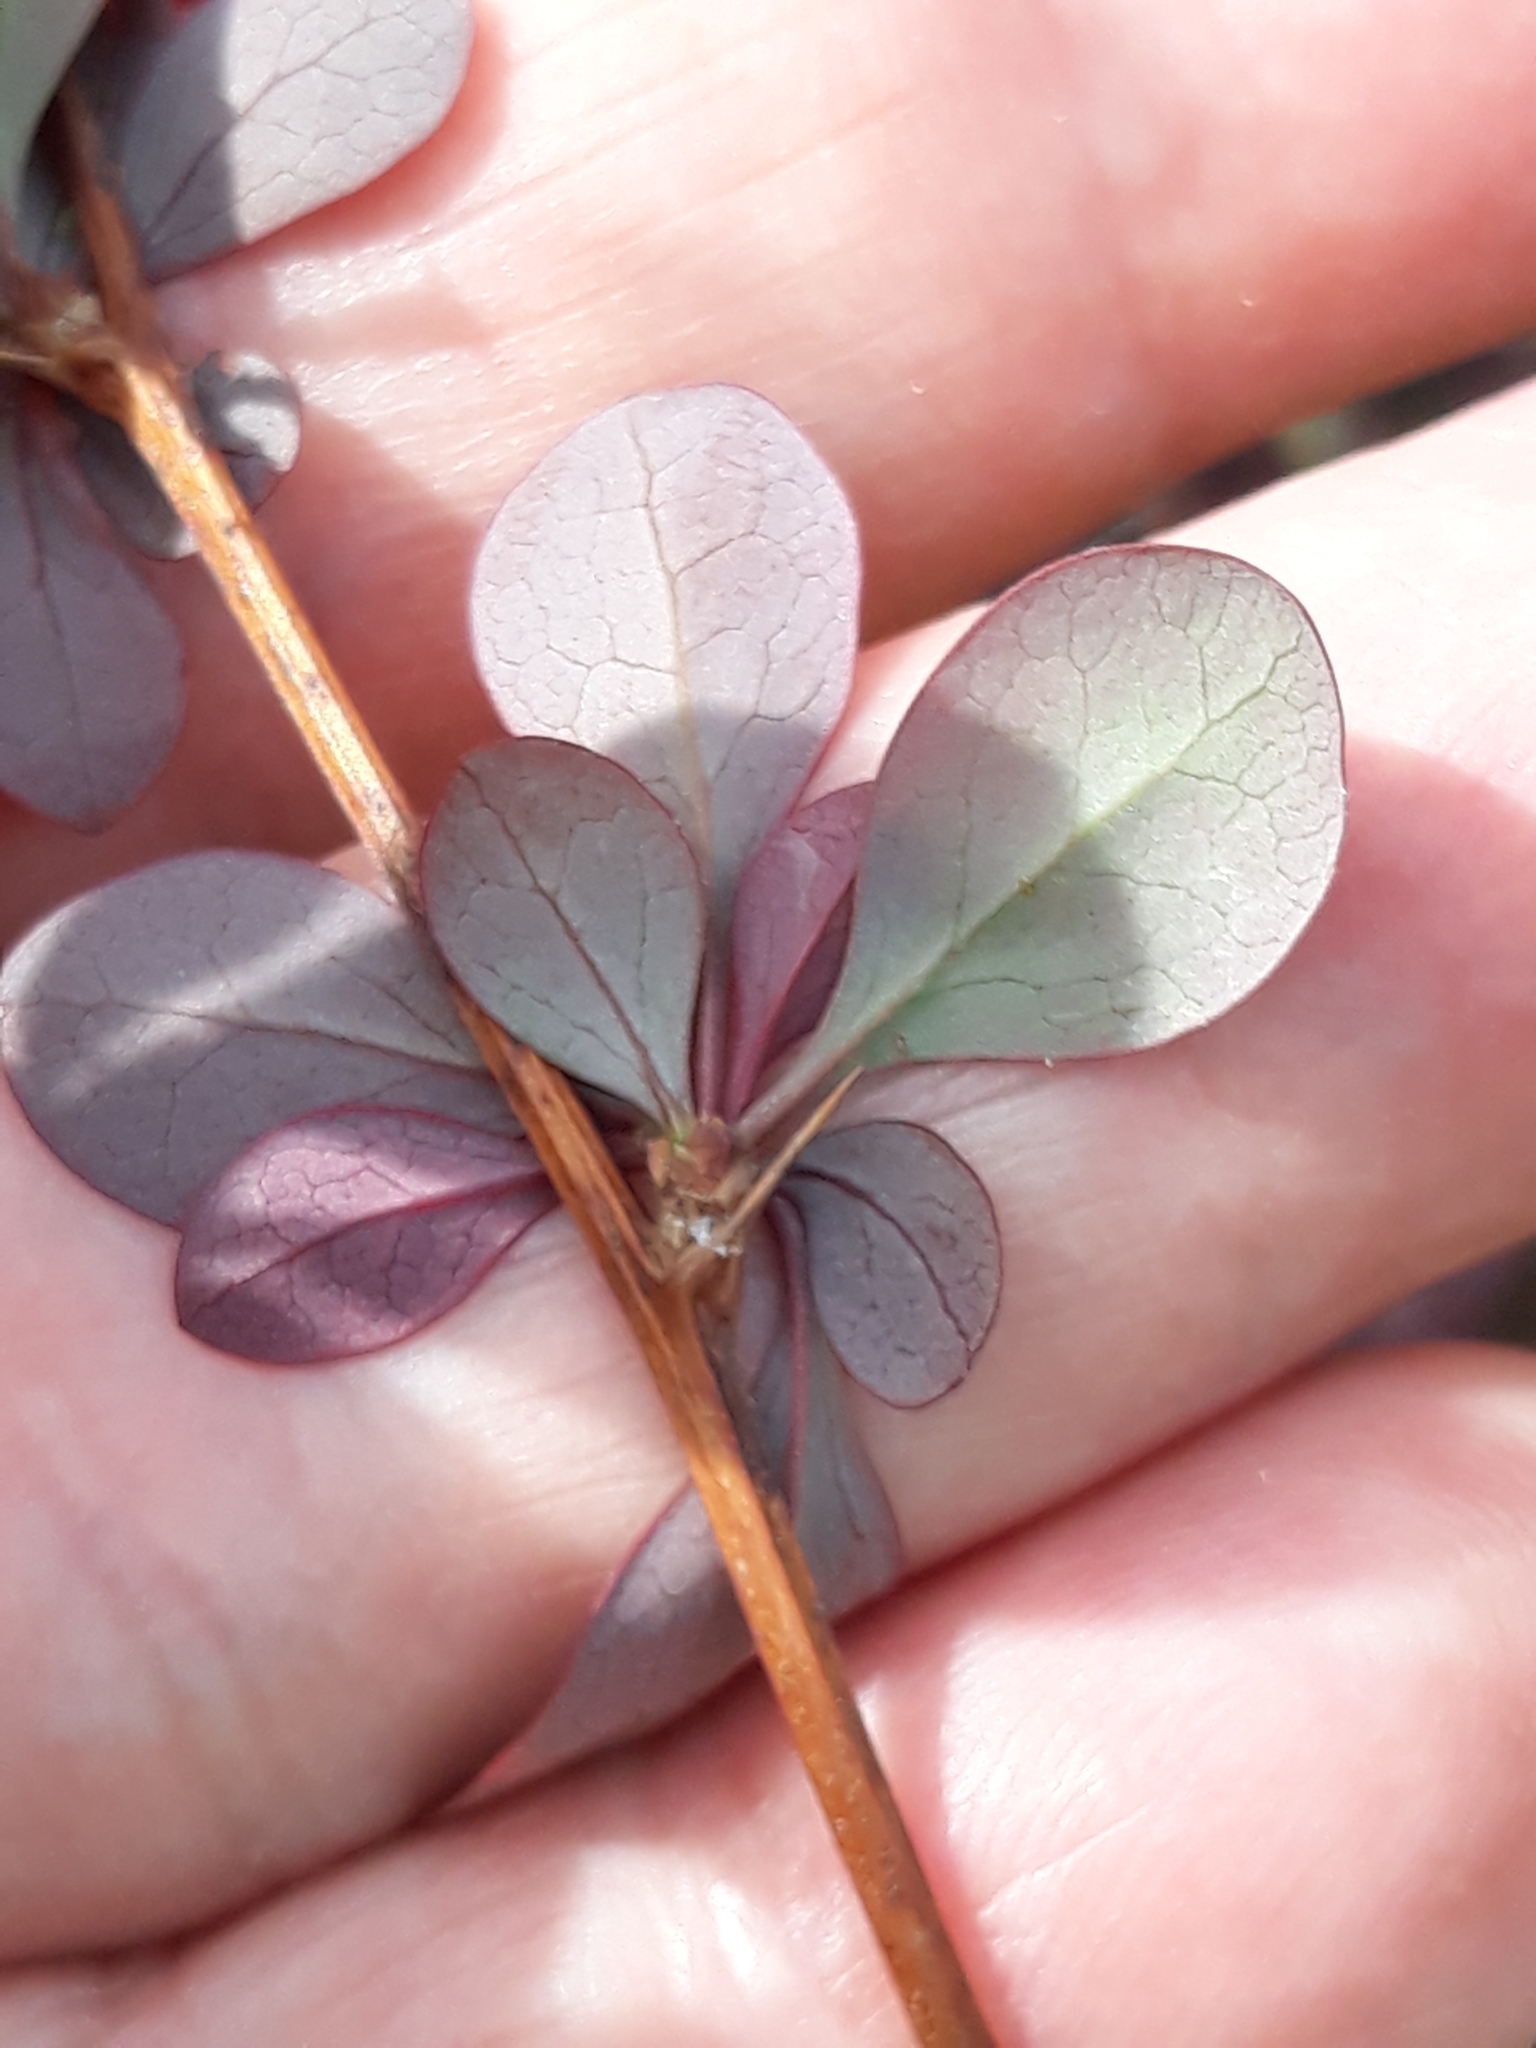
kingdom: Plantae
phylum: Tracheophyta
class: Magnoliopsida
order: Ranunculales
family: Berberidaceae
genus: Berberis
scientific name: Berberis thunbergii
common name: Japanese barberry
